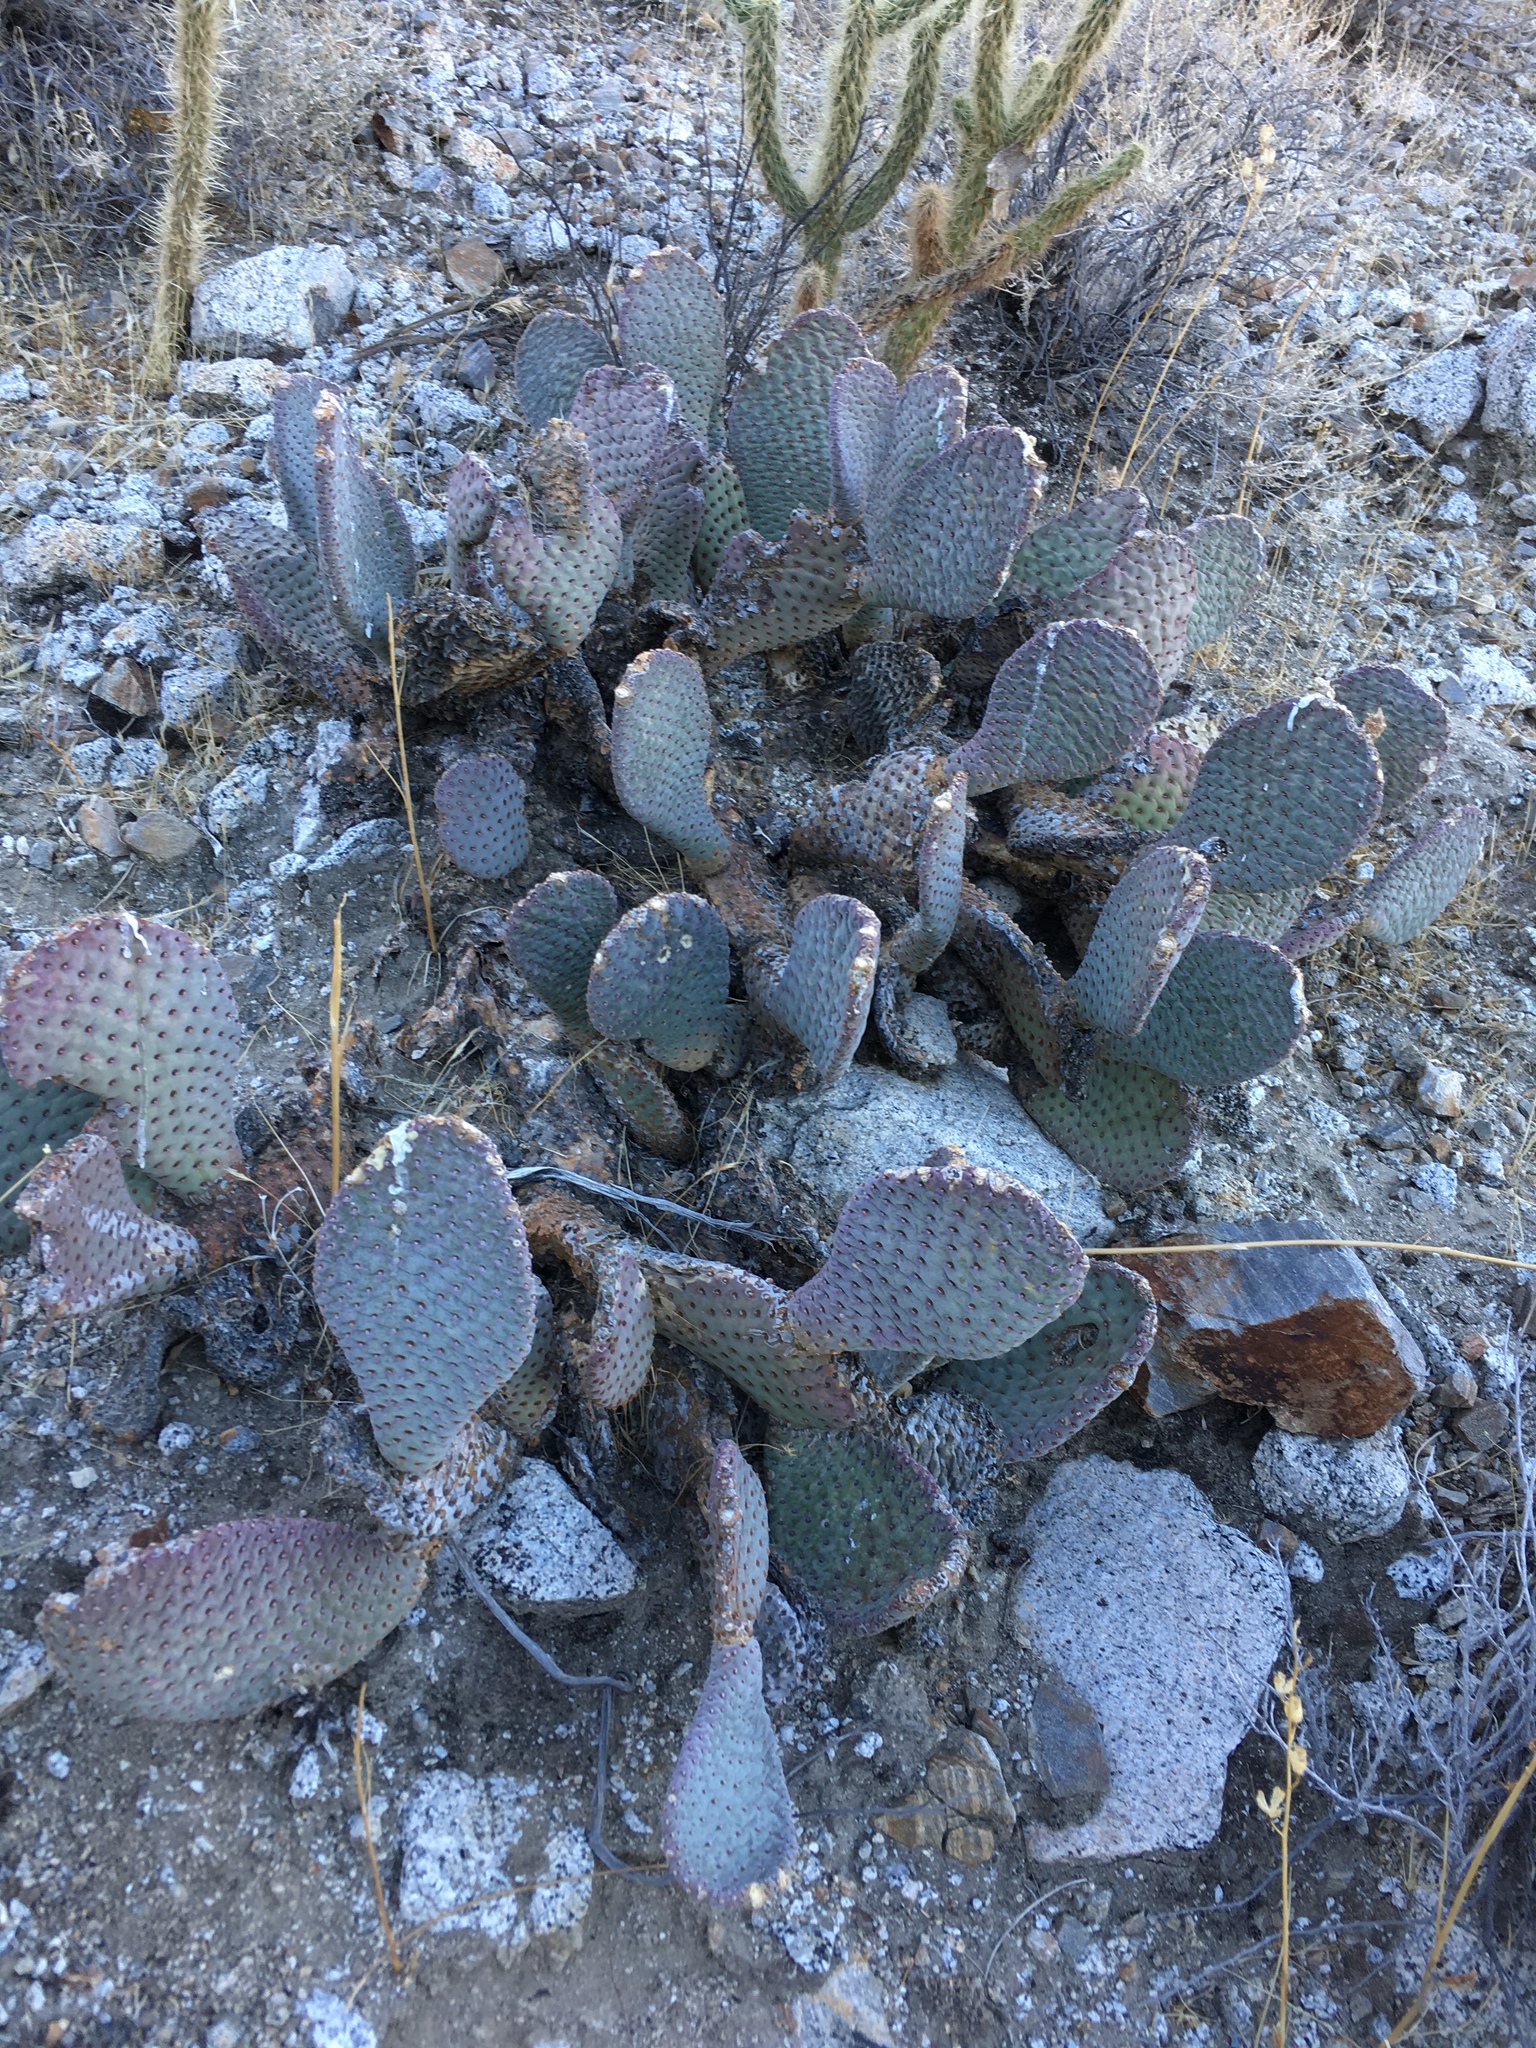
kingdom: Plantae
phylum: Tracheophyta
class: Magnoliopsida
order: Caryophyllales
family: Cactaceae
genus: Opuntia
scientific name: Opuntia basilaris
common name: Beavertail prickly-pear
